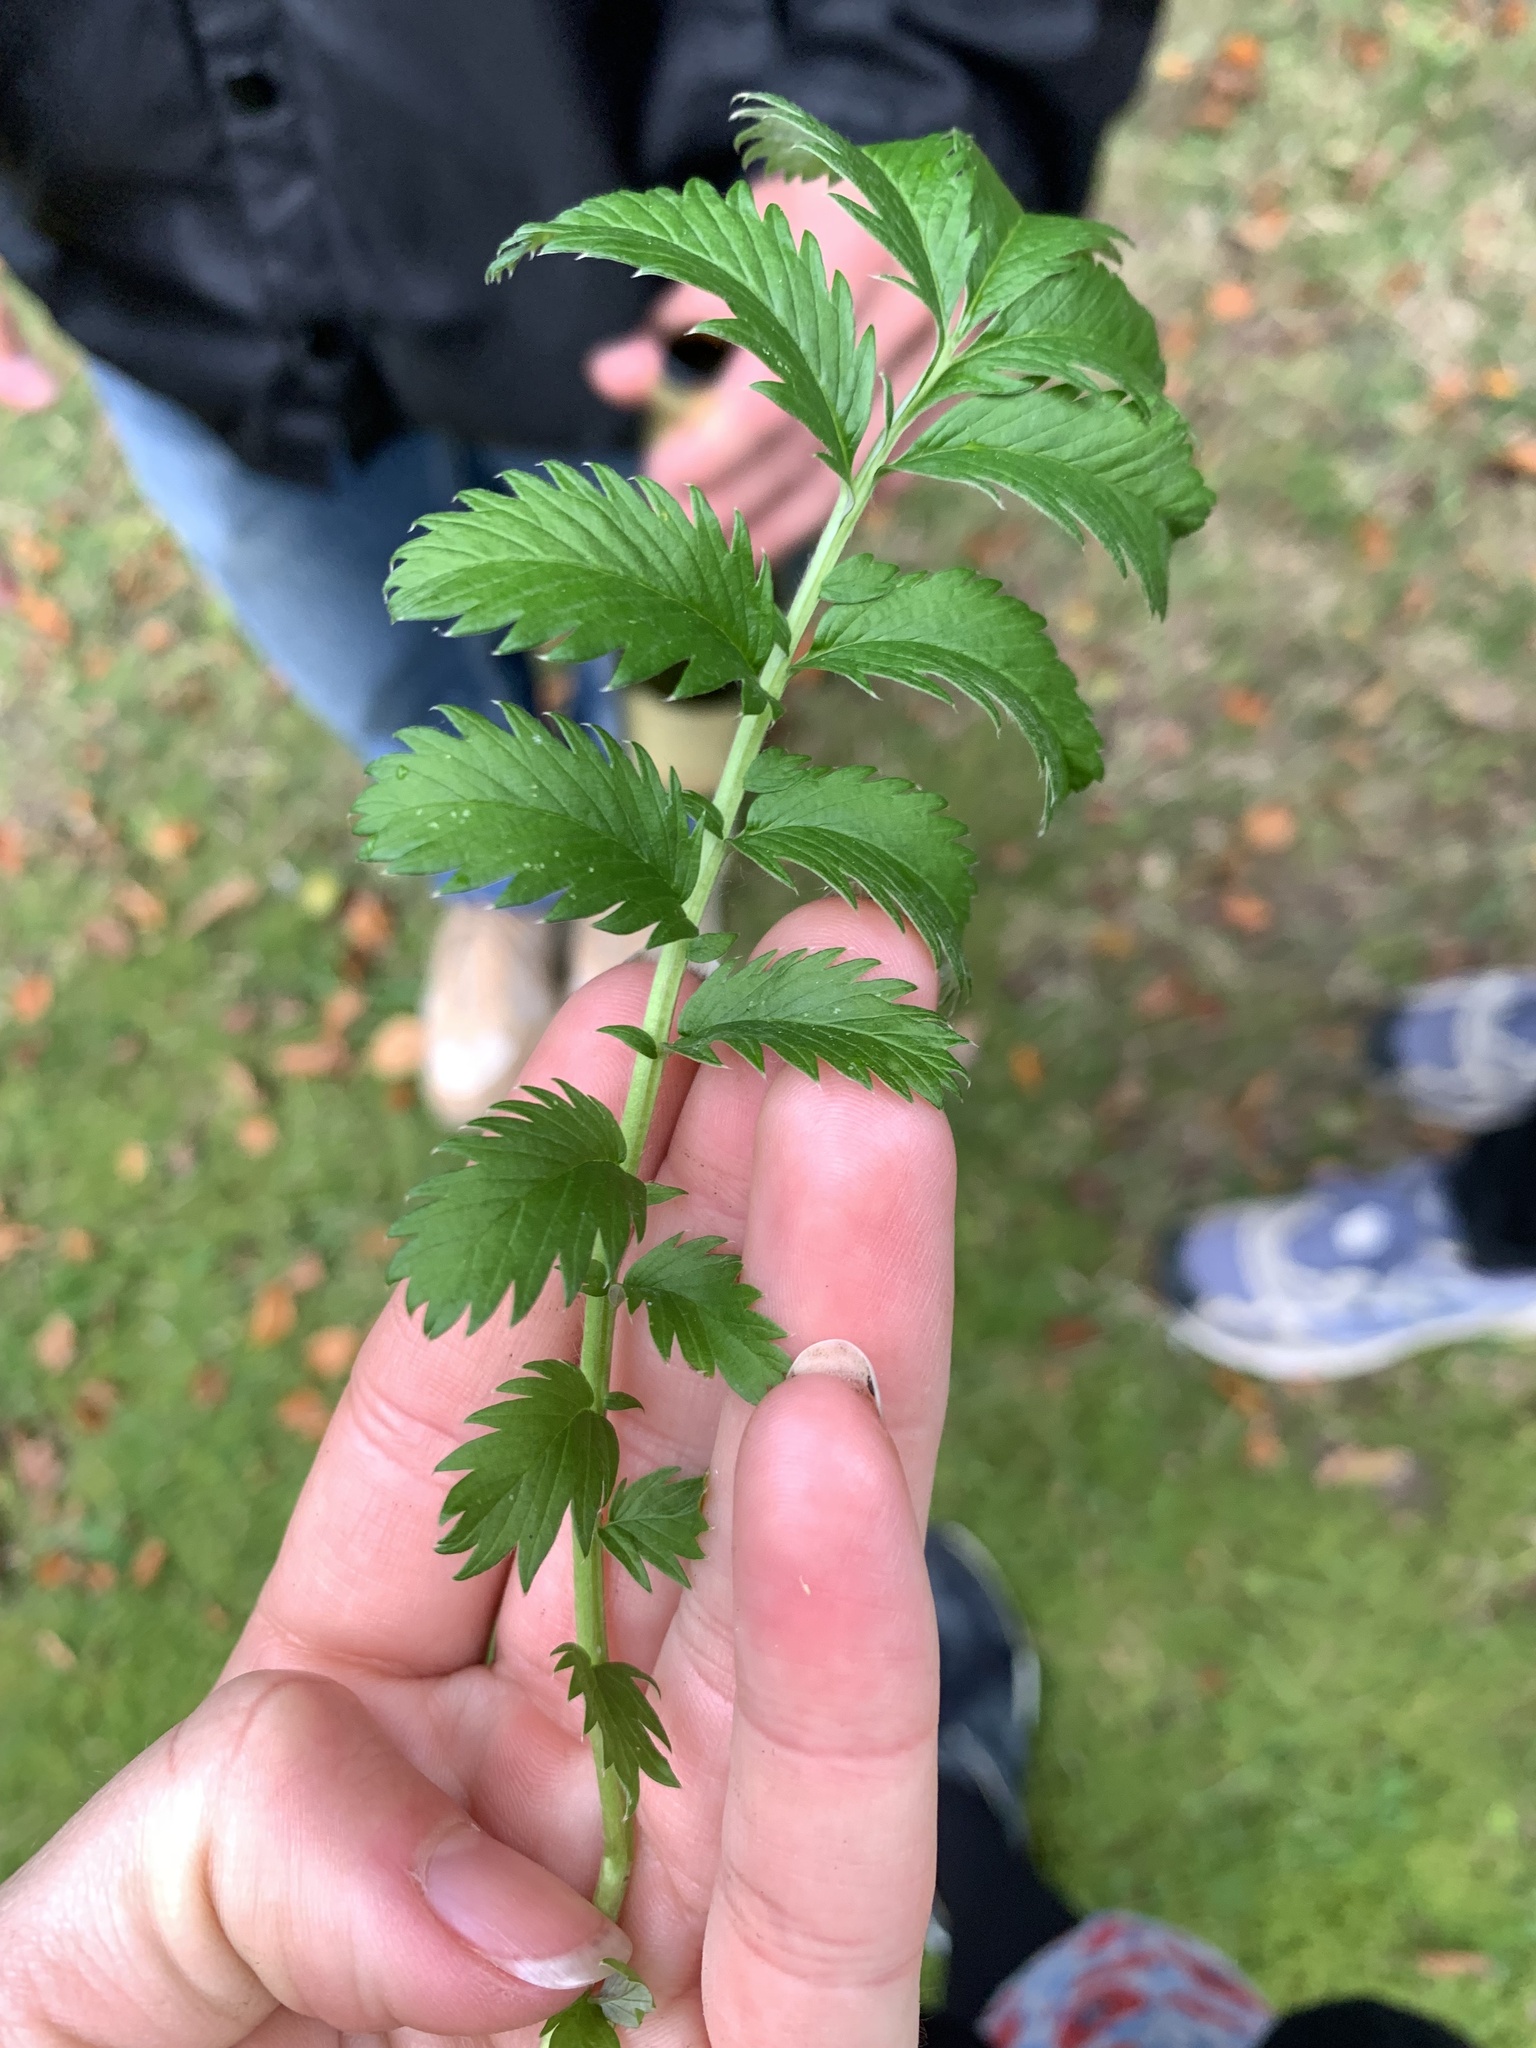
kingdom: Plantae
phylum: Tracheophyta
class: Magnoliopsida
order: Rosales
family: Rosaceae
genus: Argentina
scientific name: Argentina anserina
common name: Common silverweed
